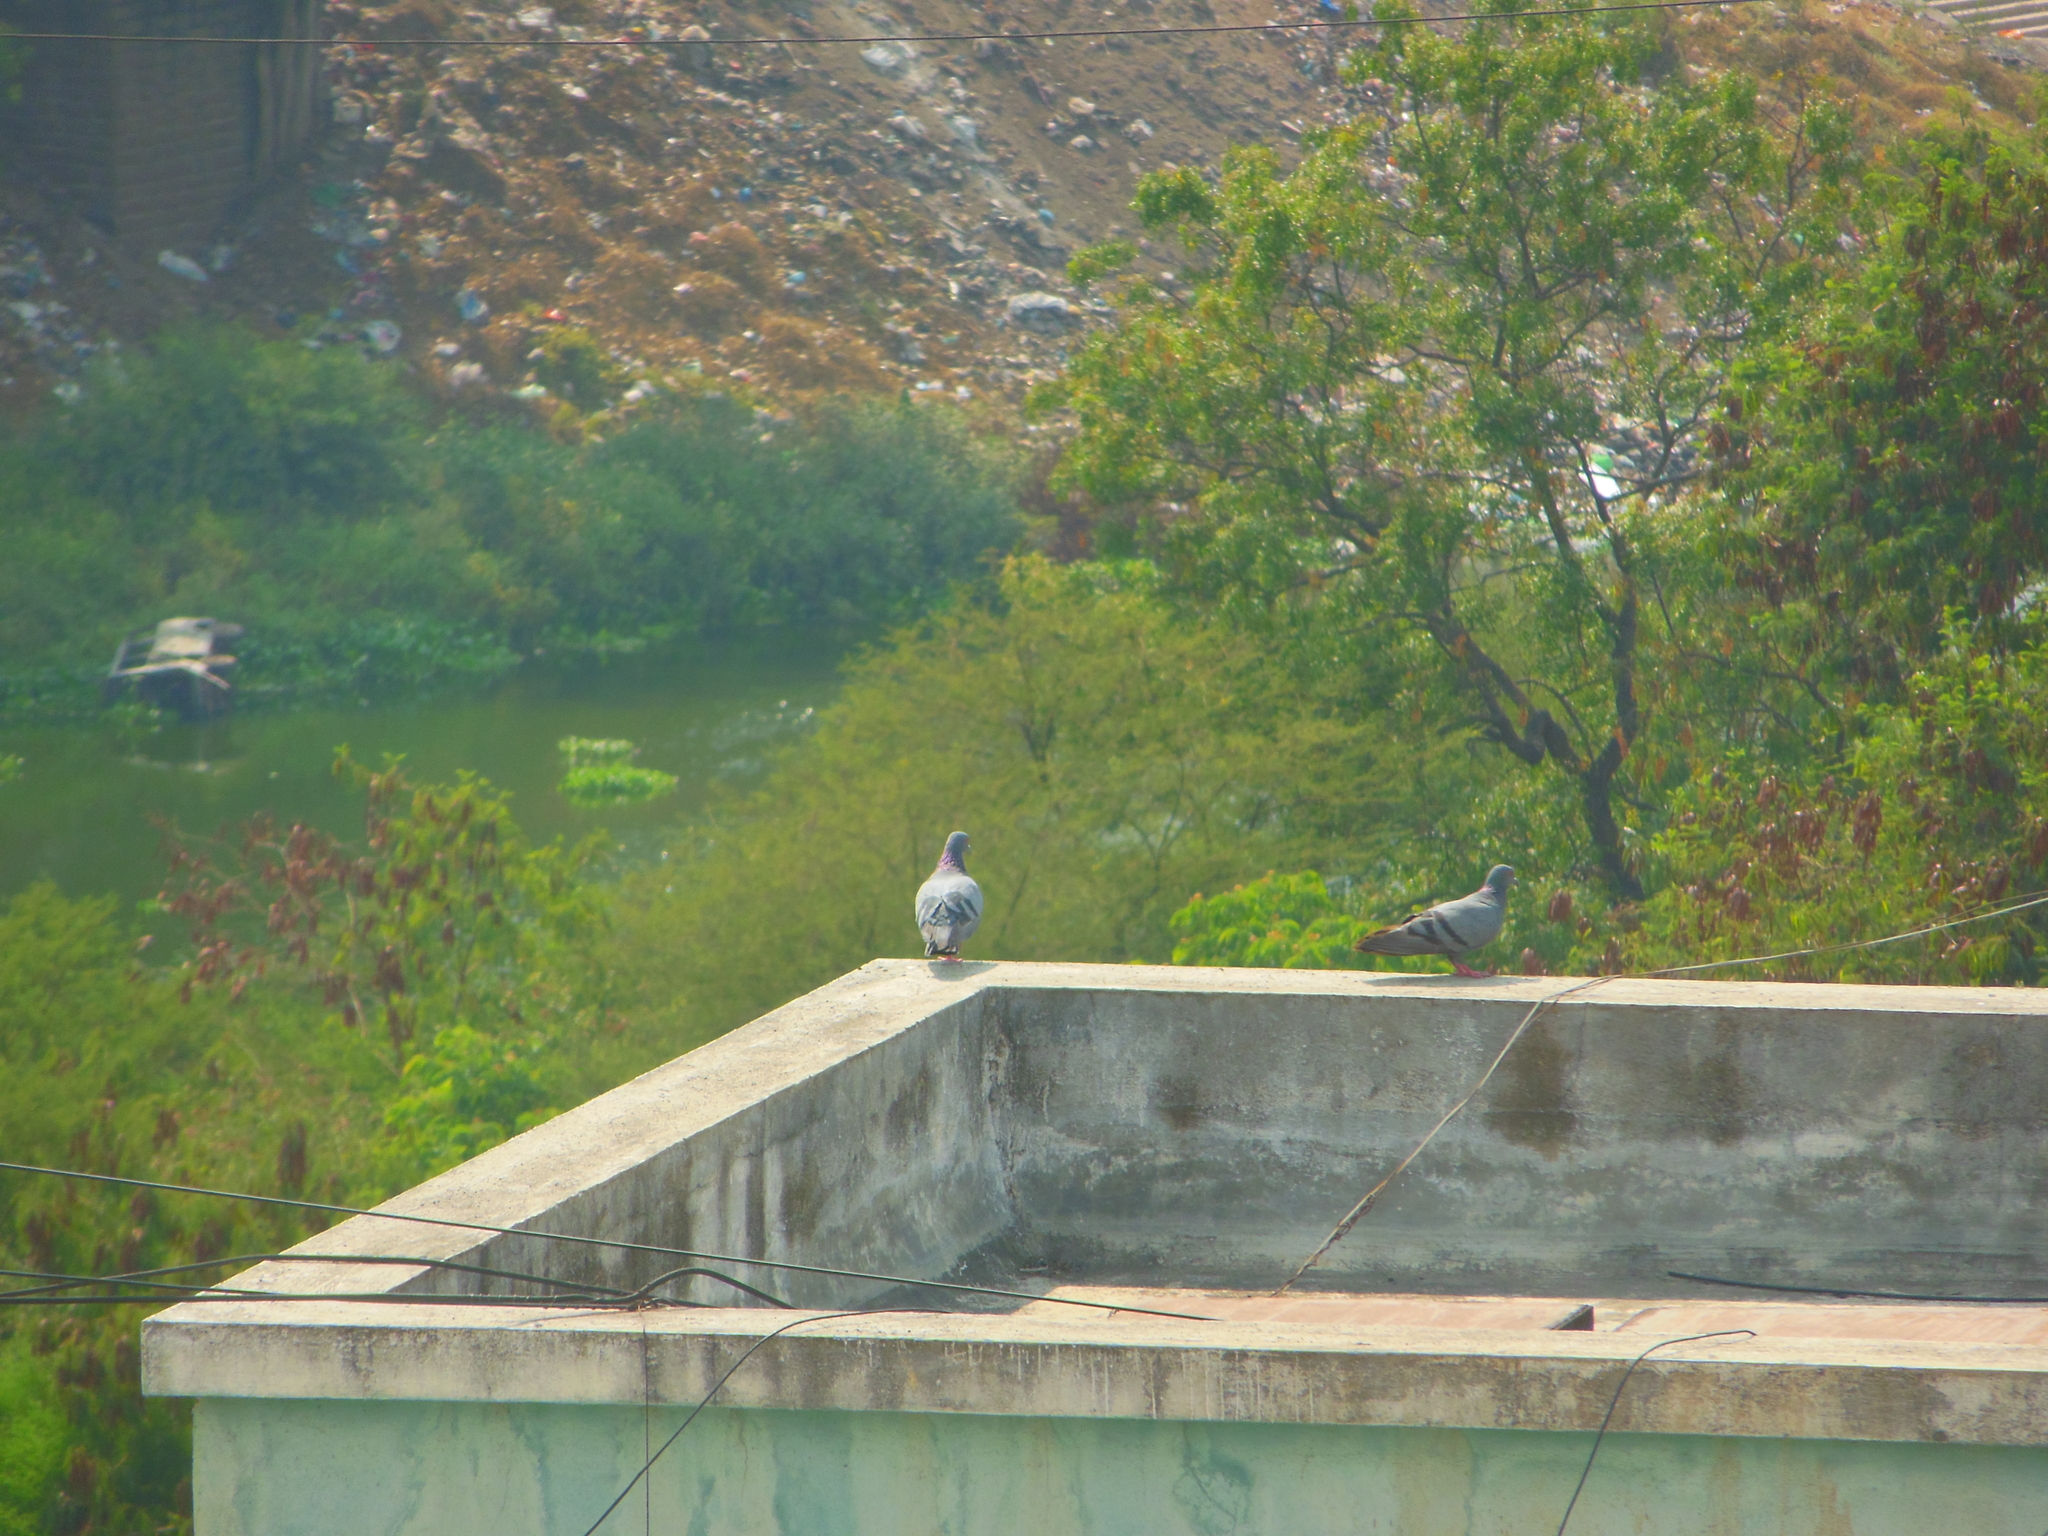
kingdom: Animalia
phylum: Chordata
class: Aves
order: Columbiformes
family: Columbidae
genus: Columba
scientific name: Columba livia
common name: Rock pigeon
